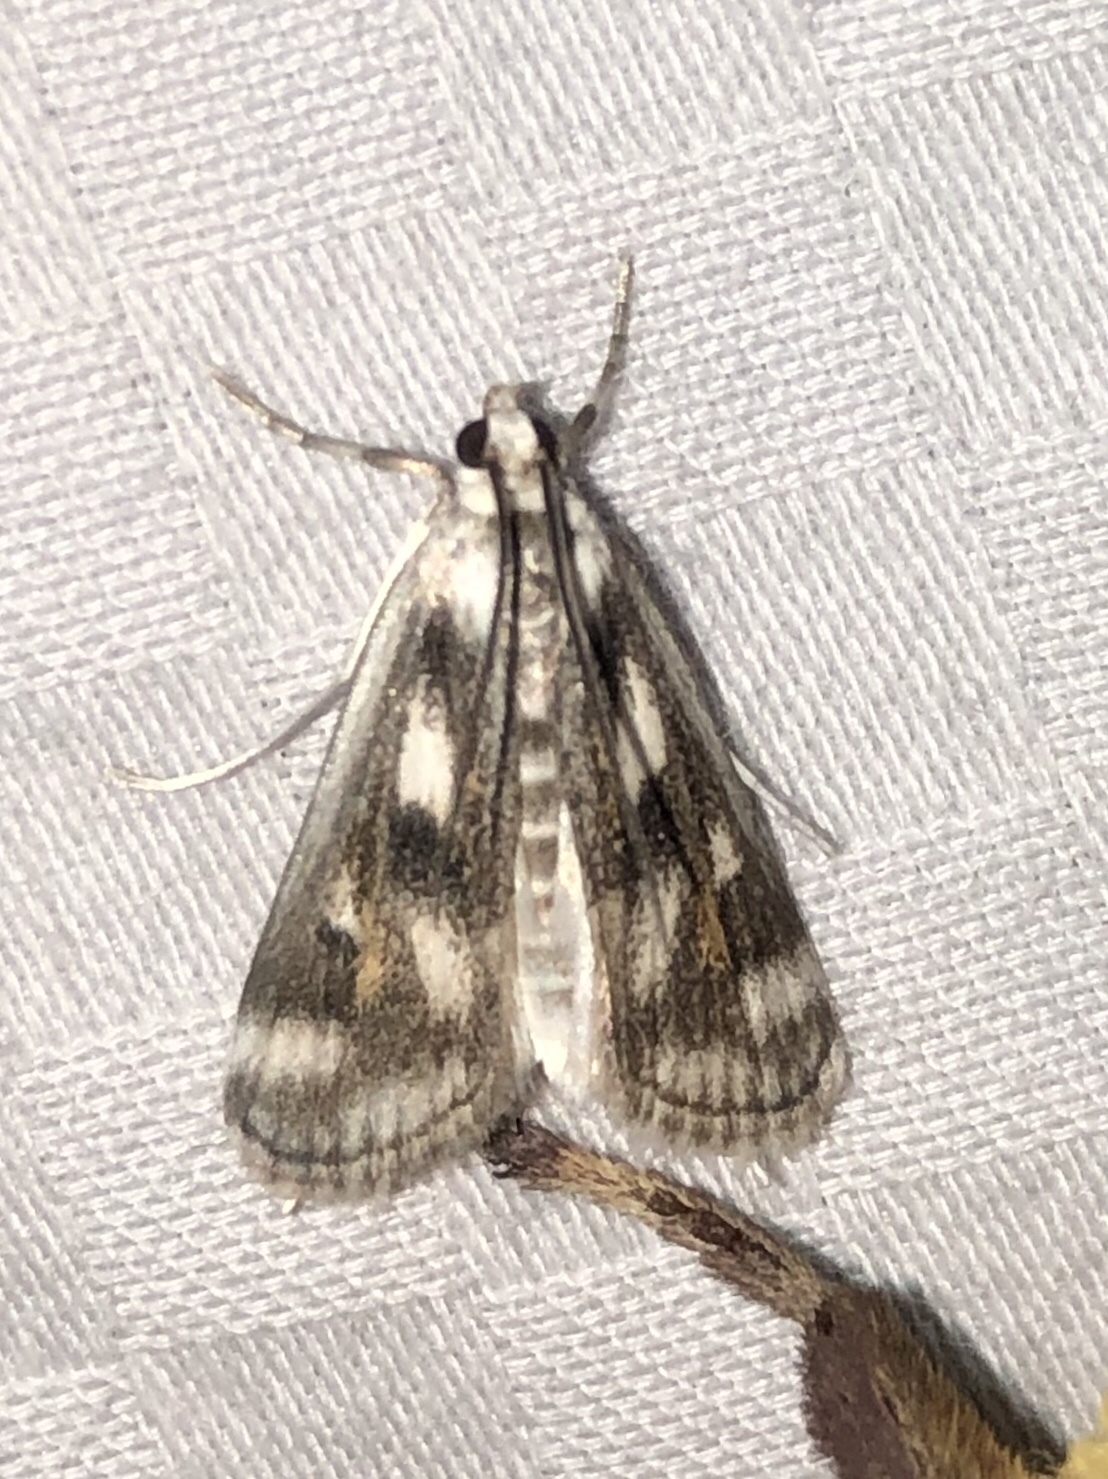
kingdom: Animalia
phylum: Arthropoda
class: Insecta
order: Lepidoptera
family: Crambidae
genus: Parapoynx
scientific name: Parapoynx maculalis
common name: Polymorphic pondweed moth
